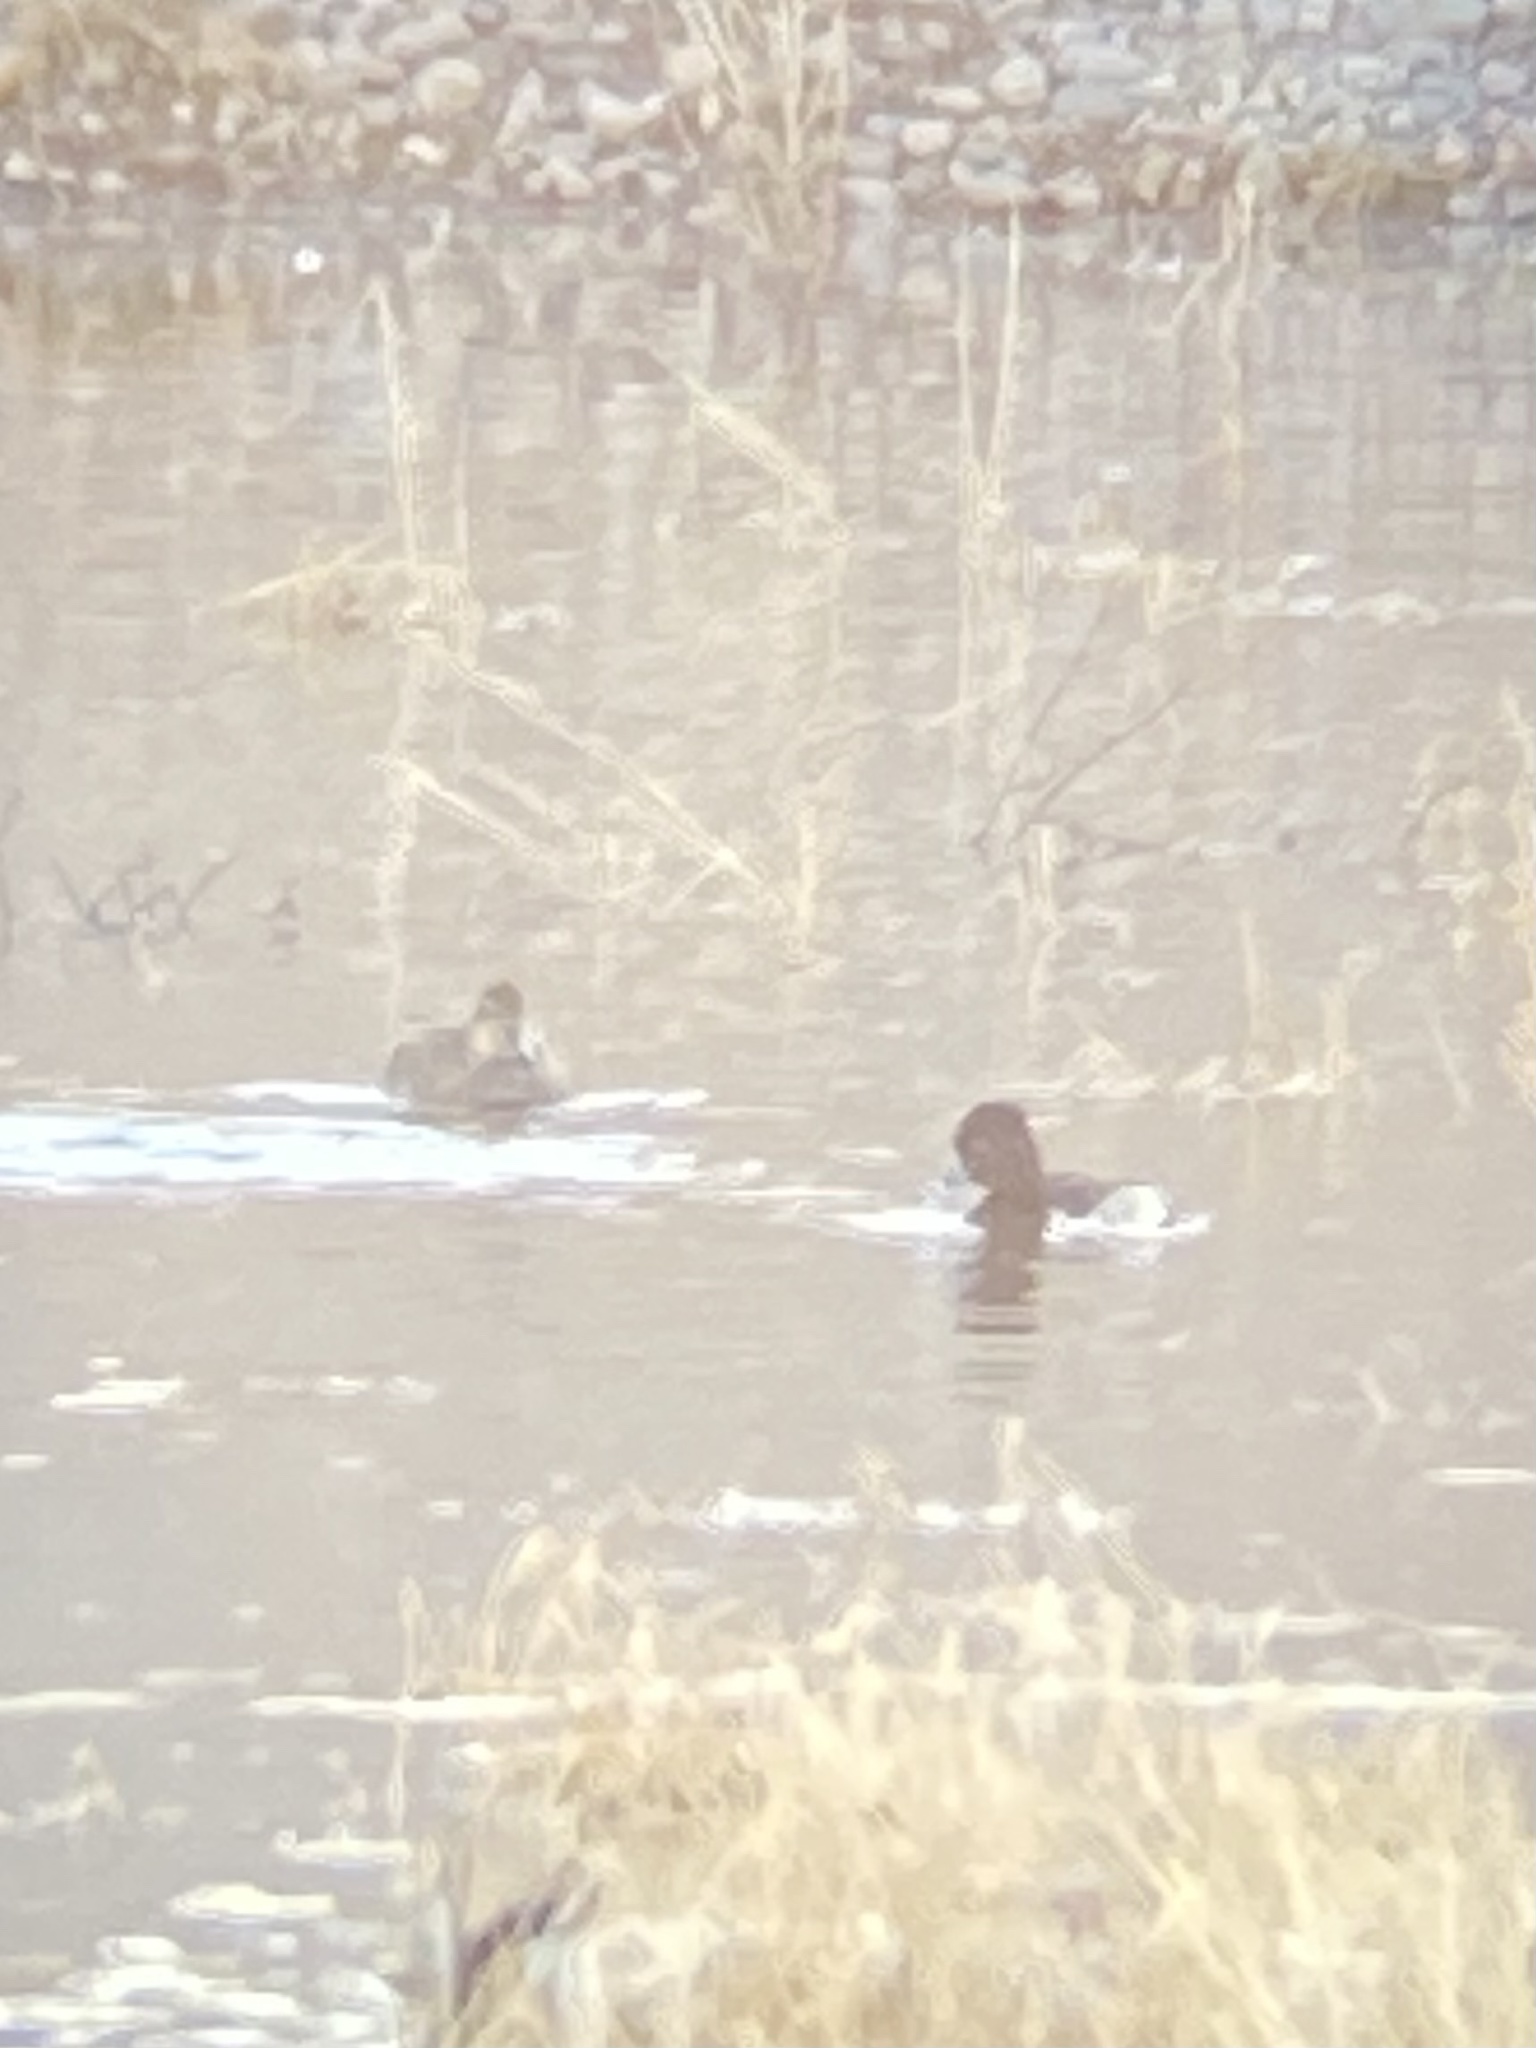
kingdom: Animalia
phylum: Chordata
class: Aves
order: Anseriformes
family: Anatidae
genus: Aythya
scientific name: Aythya collaris
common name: Ring-necked duck
